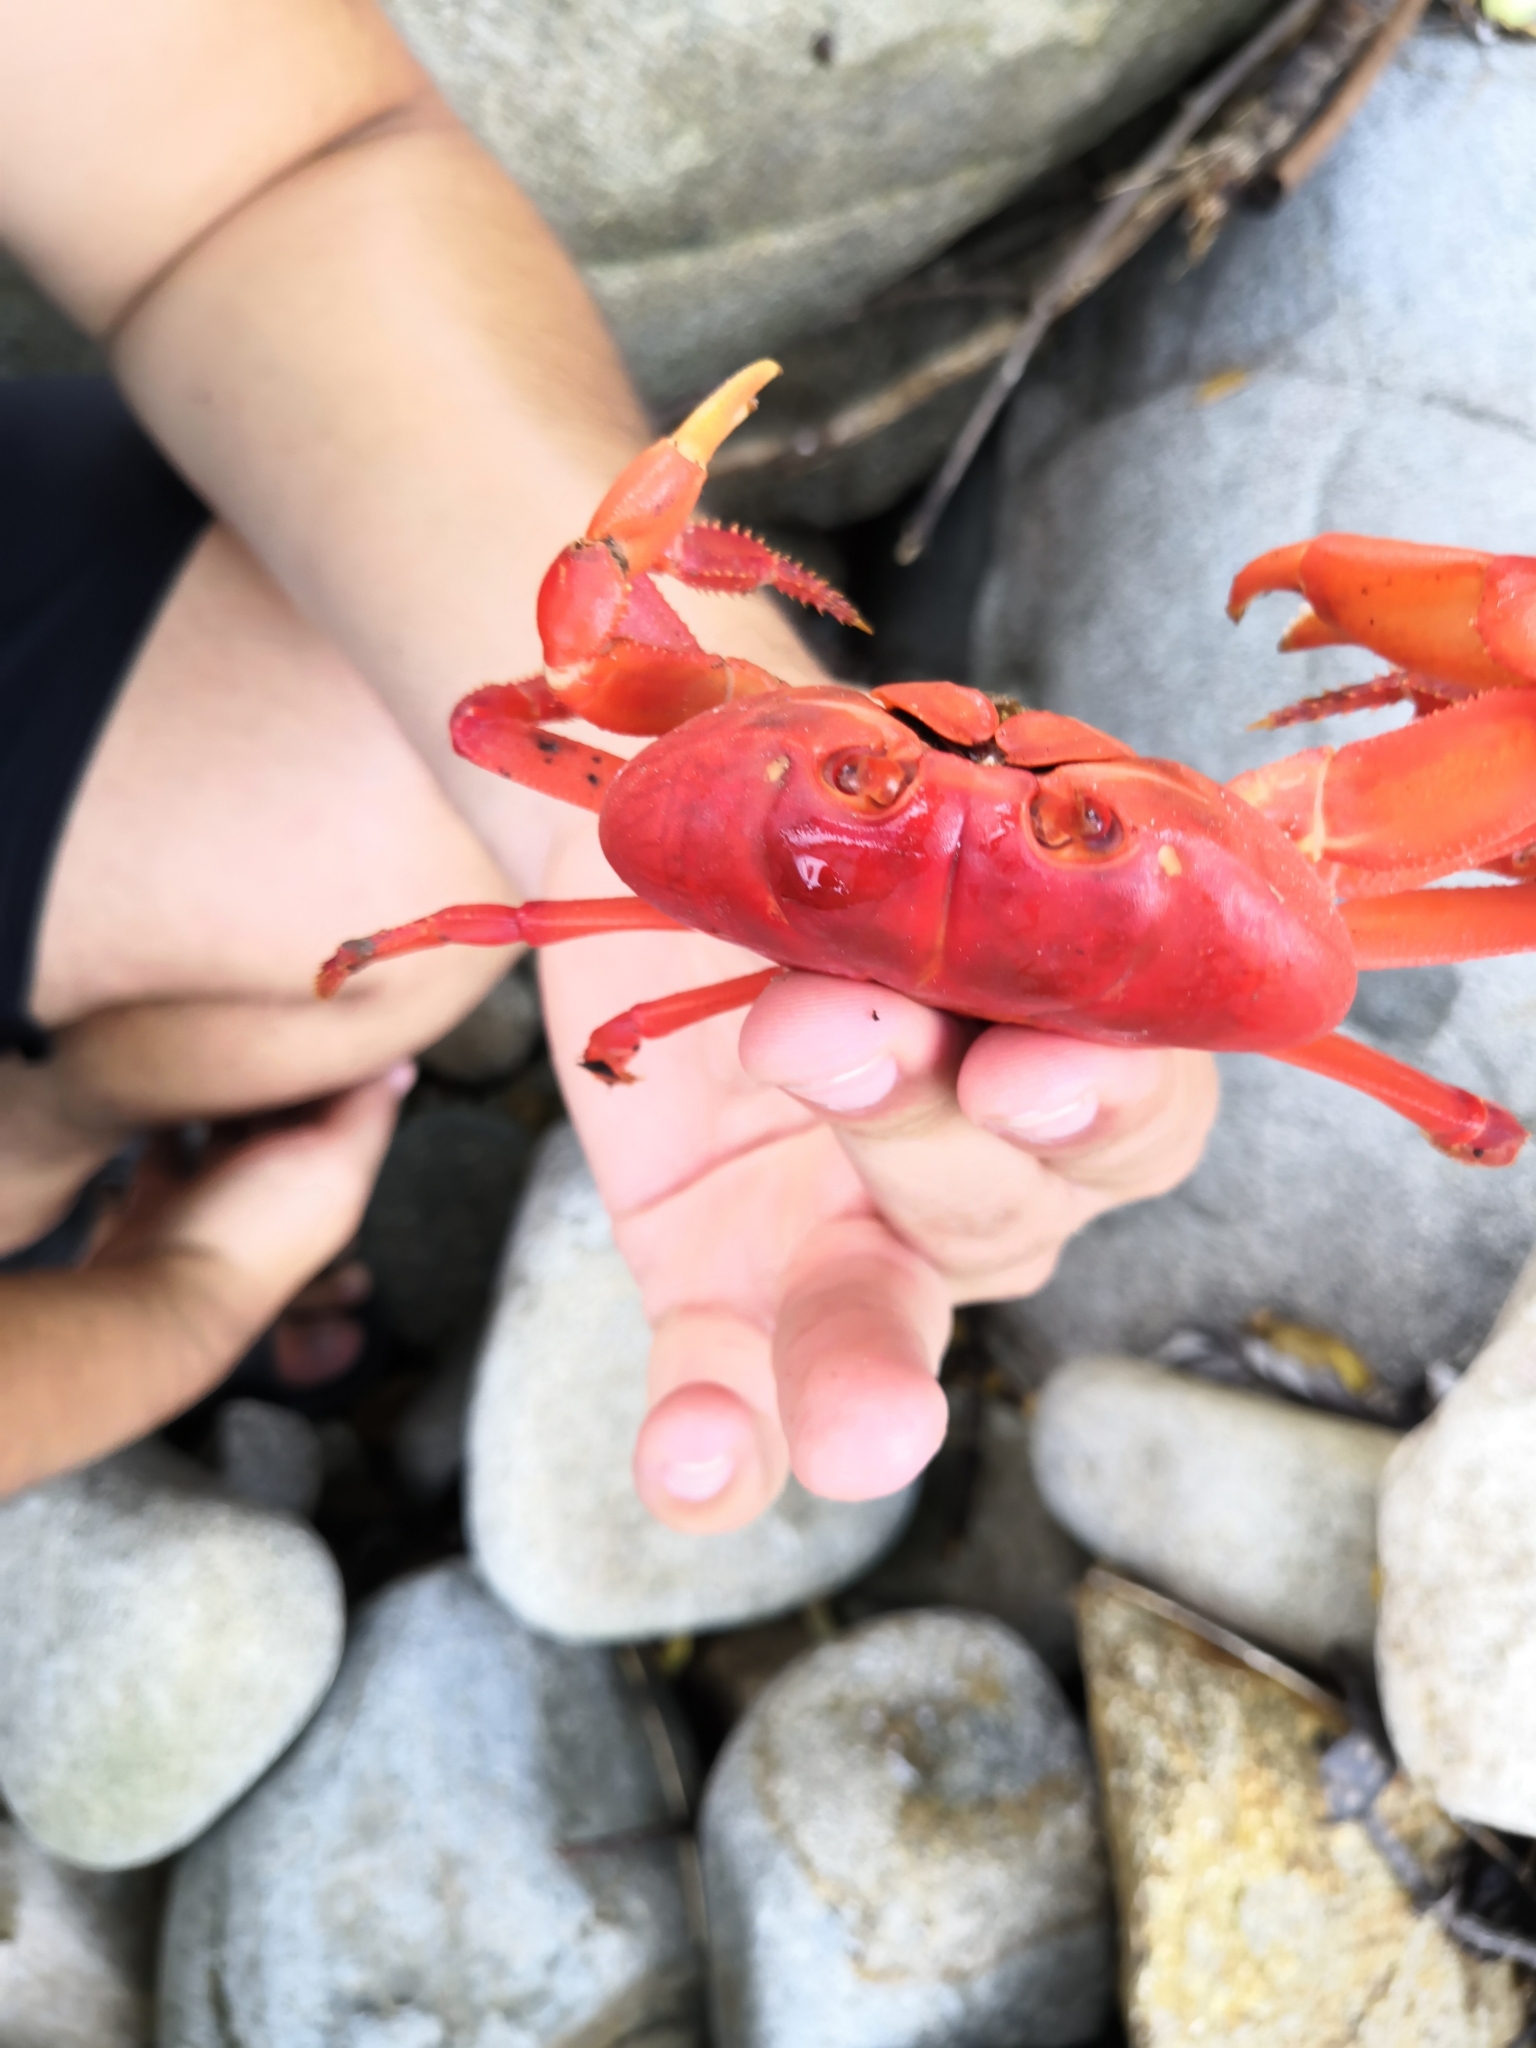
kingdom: Animalia
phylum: Arthropoda
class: Malacostraca
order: Decapoda
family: Gecarcinidae
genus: Johngarthia
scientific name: Johngarthia planata
